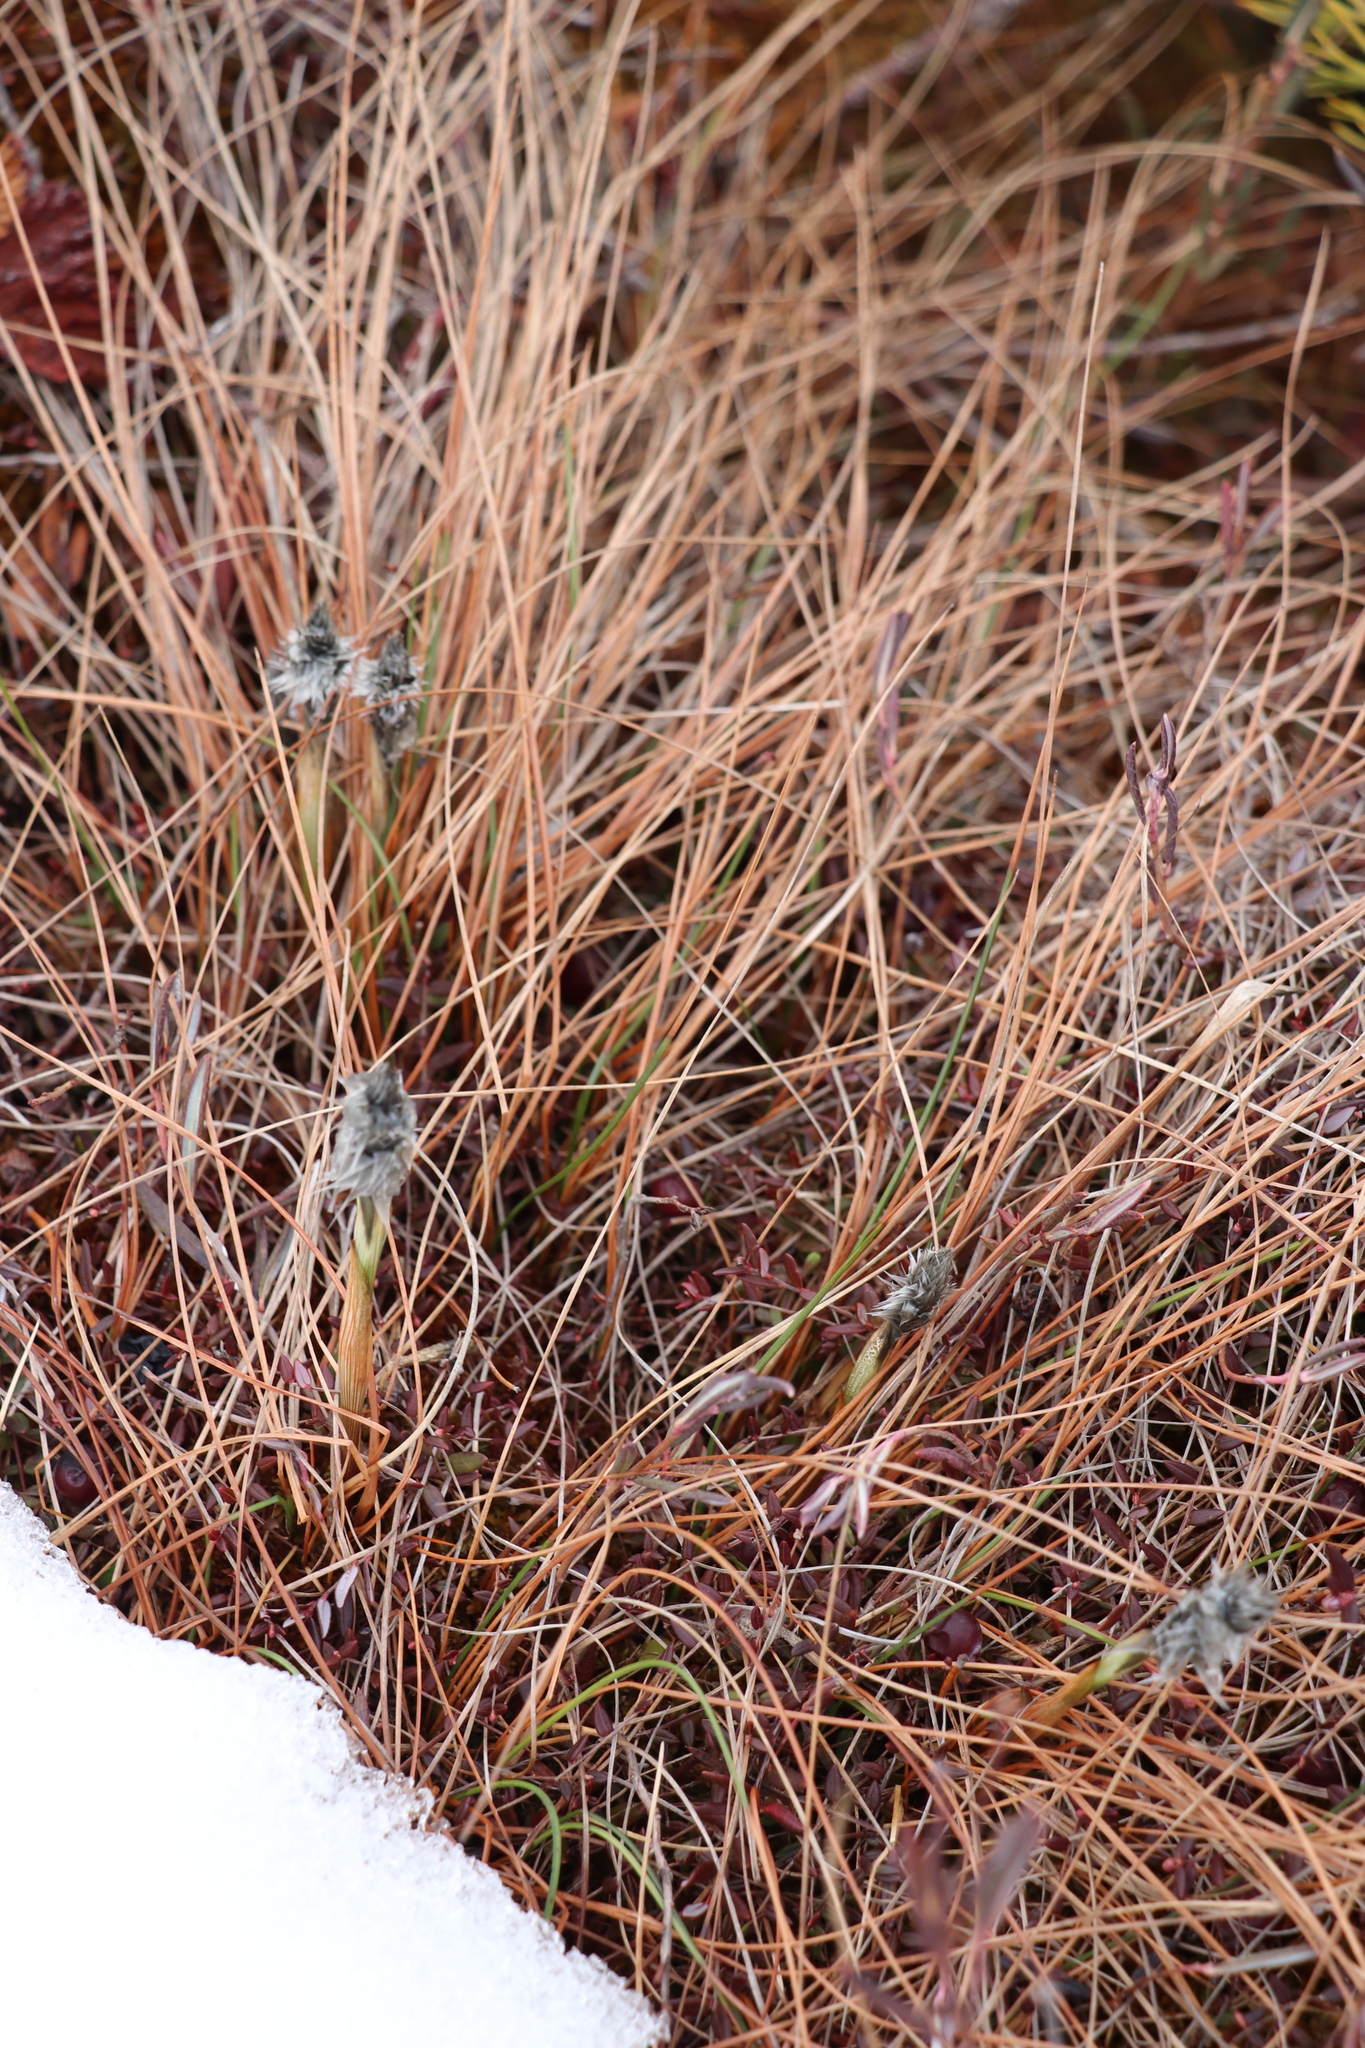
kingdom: Plantae
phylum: Tracheophyta
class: Liliopsida
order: Poales
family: Cyperaceae
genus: Eriophorum
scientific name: Eriophorum vaginatum
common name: Hare's-tail cottongrass
